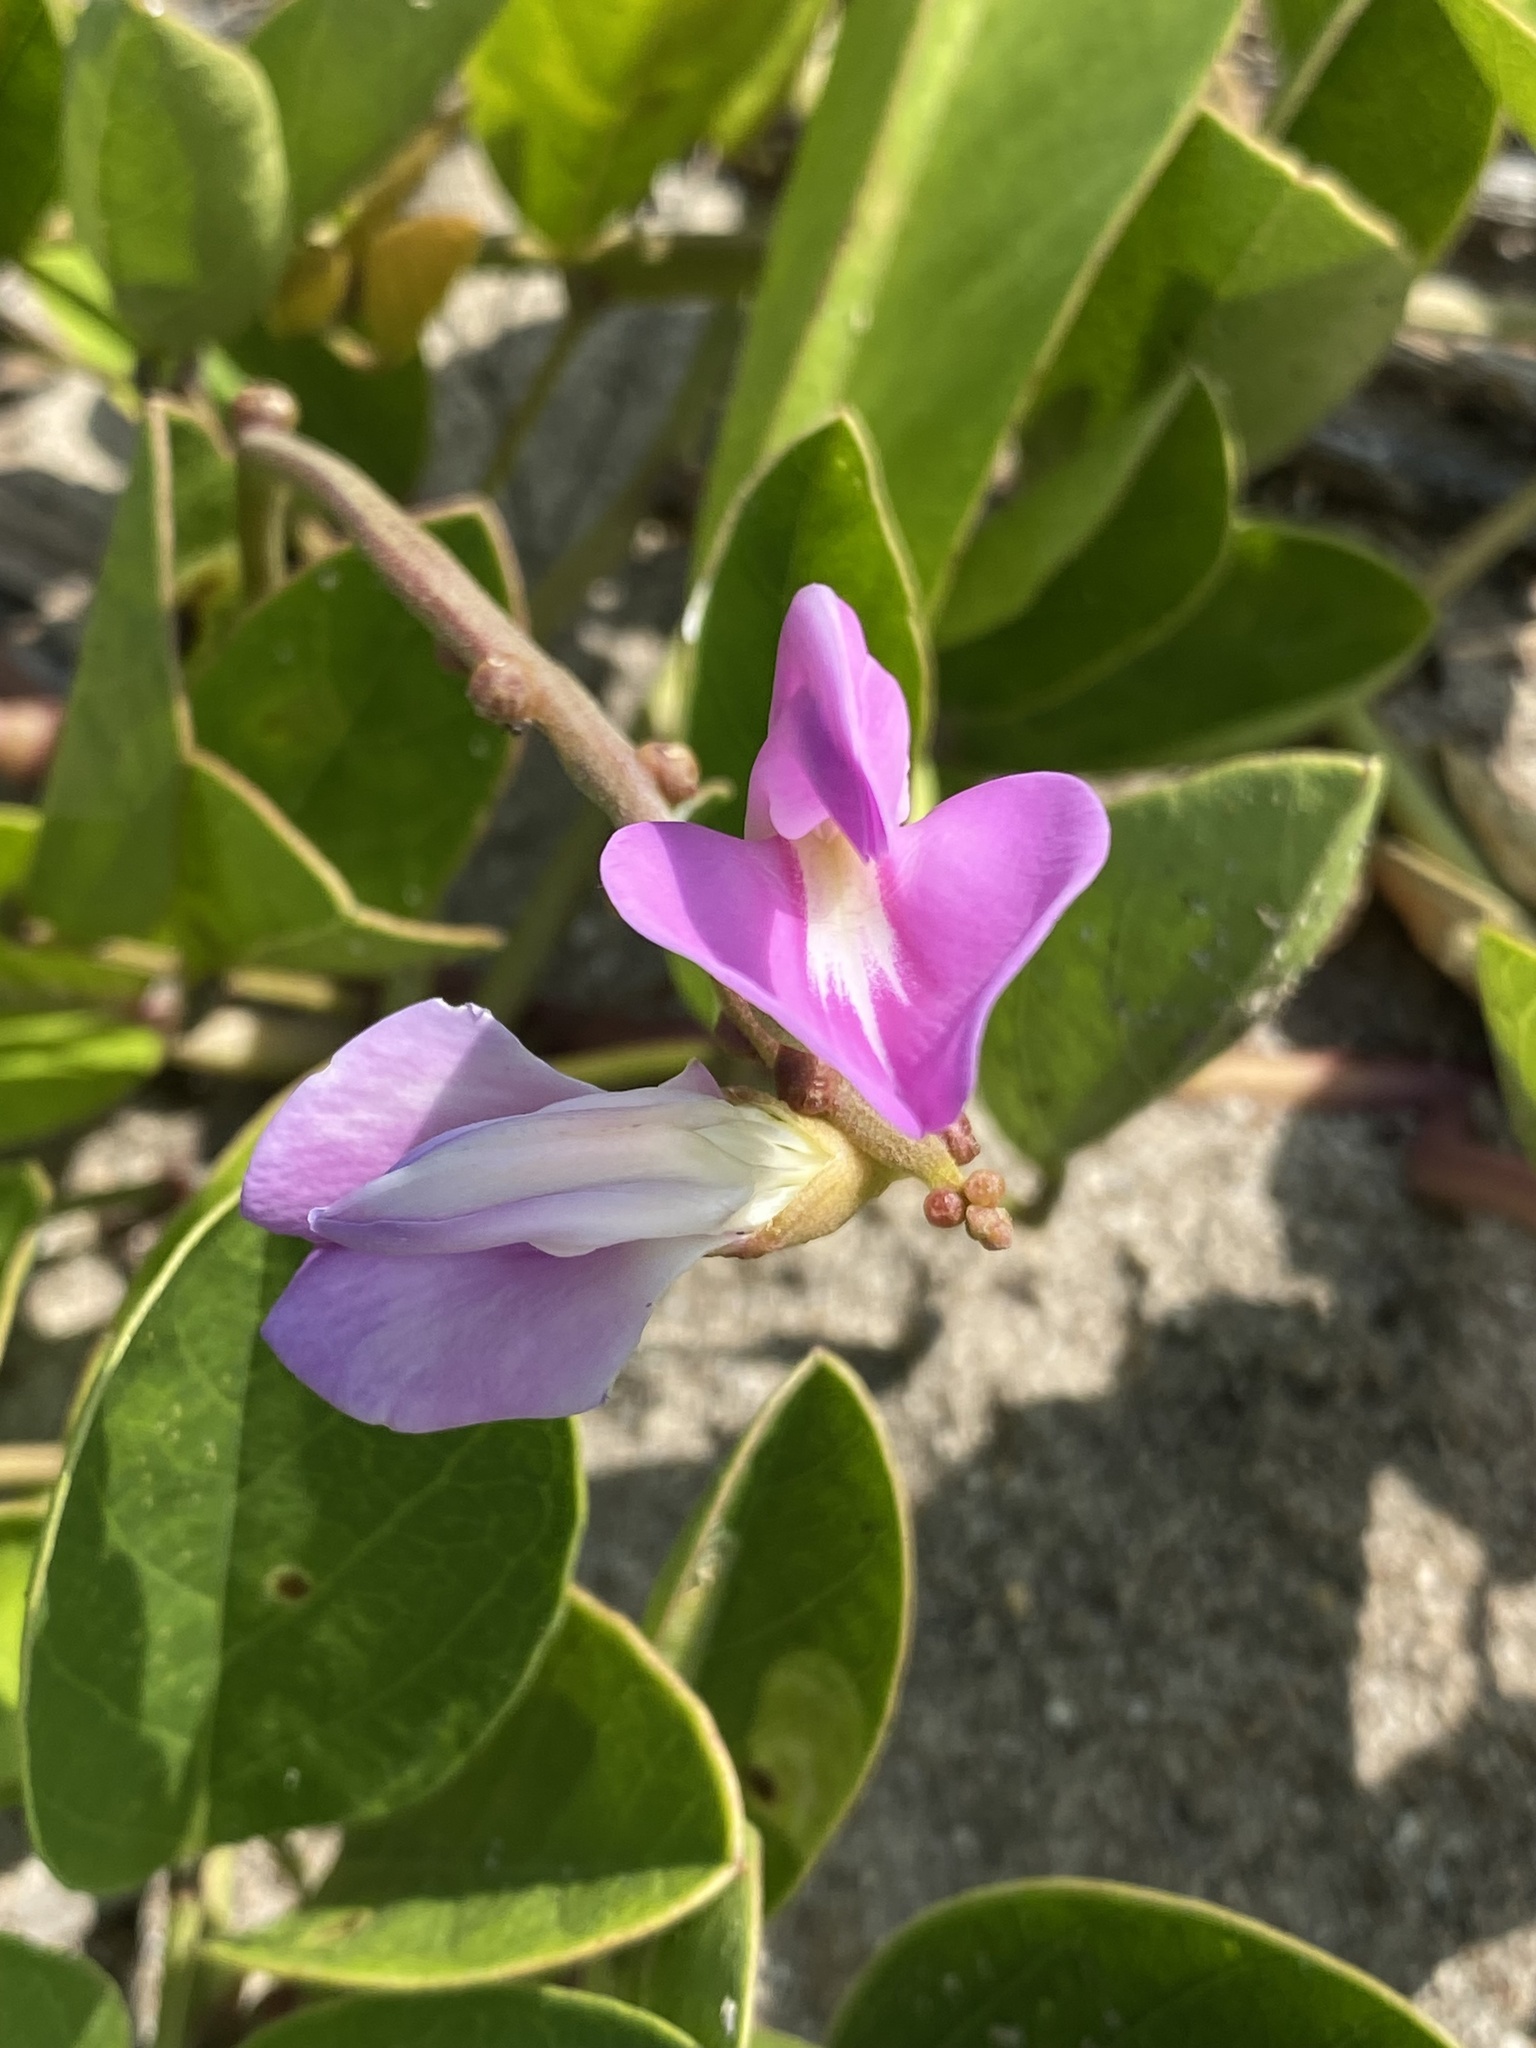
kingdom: Plantae
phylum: Tracheophyta
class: Magnoliopsida
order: Fabales
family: Fabaceae
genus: Canavalia
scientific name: Canavalia rosea
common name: Beach-bean
